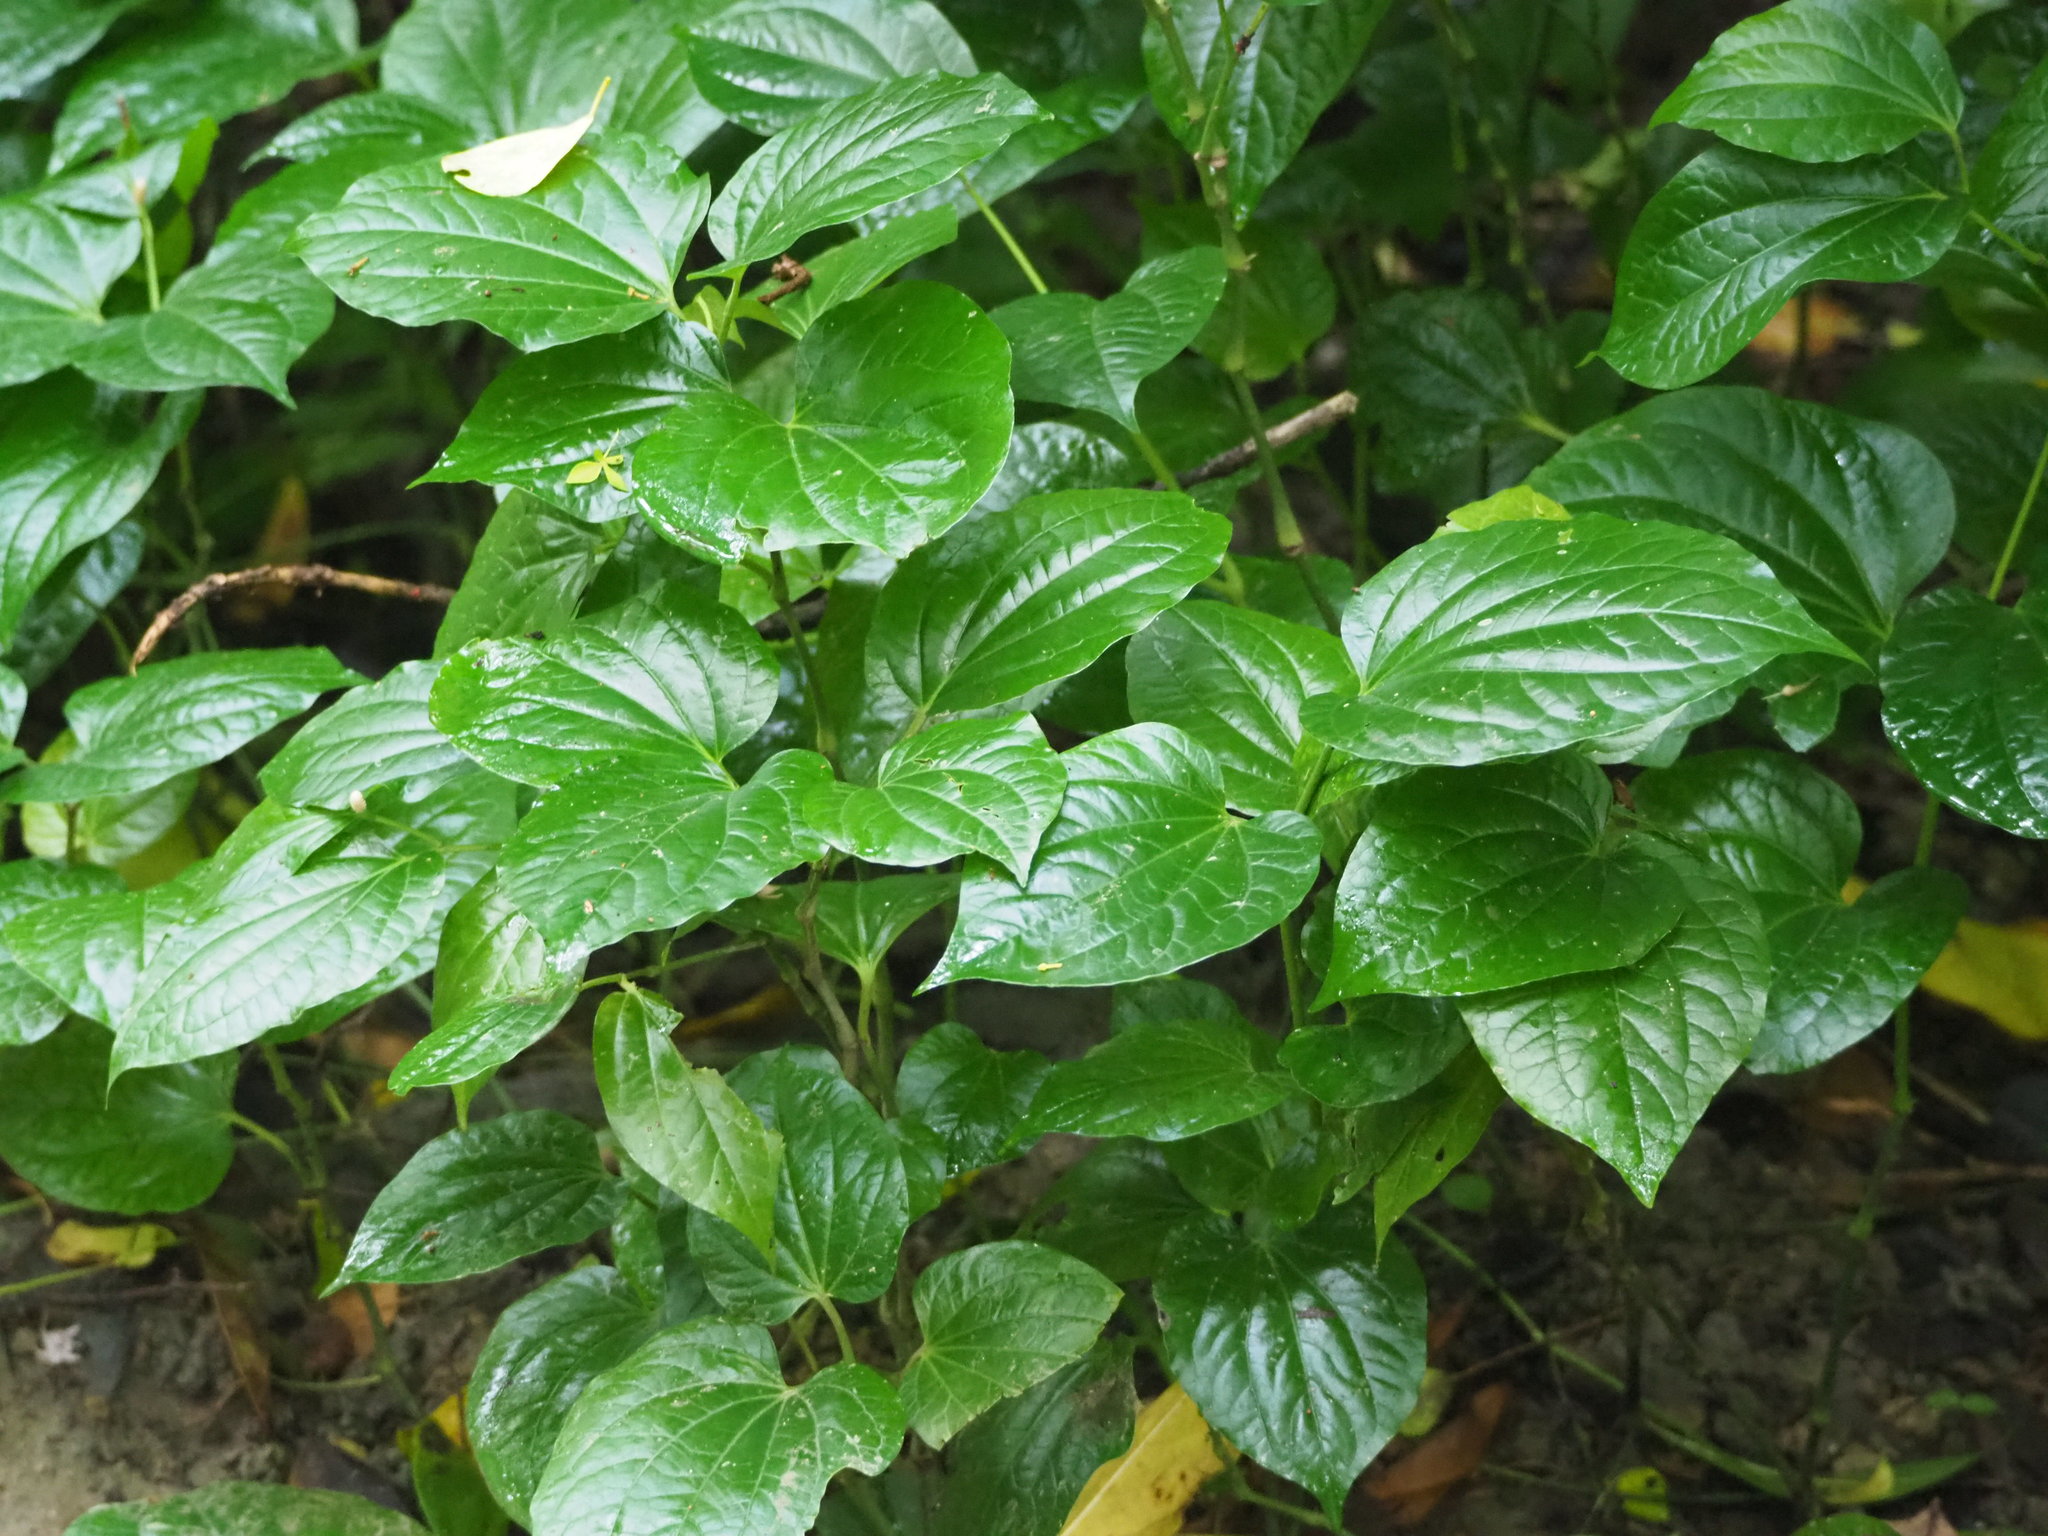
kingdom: Plantae
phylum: Tracheophyta
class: Magnoliopsida
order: Piperales
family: Piperaceae
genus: Piper
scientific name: Piper sarmentosum
